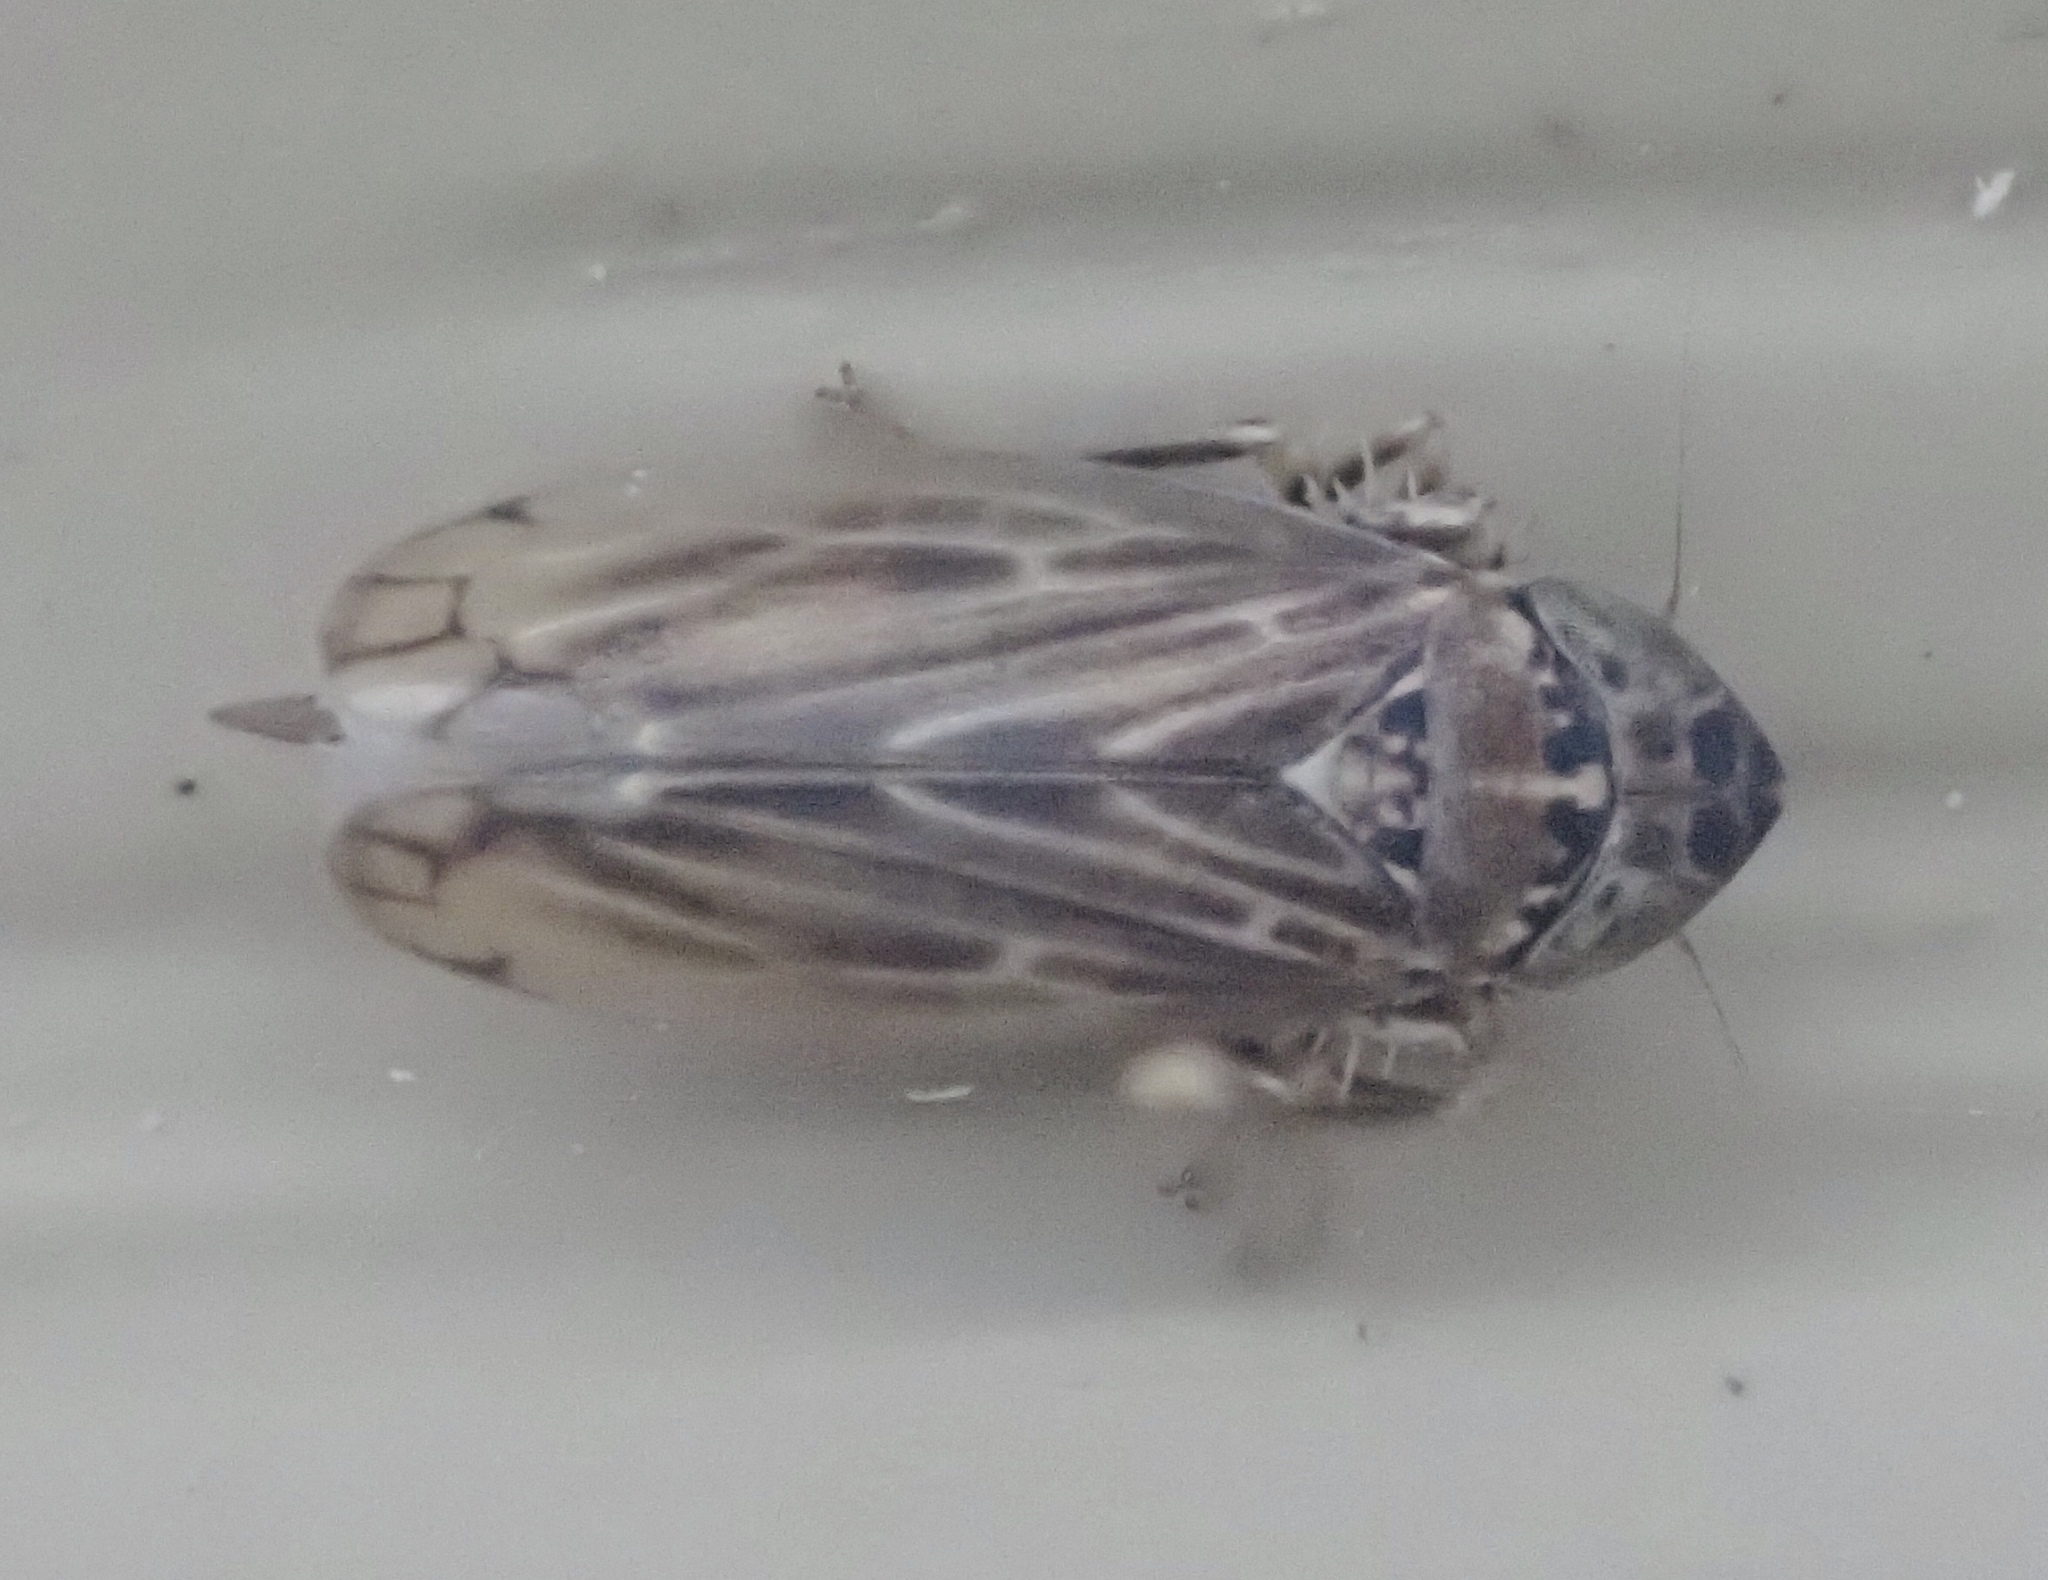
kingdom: Animalia
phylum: Arthropoda
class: Insecta
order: Hemiptera
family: Cicadellidae
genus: Stirellus
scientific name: Stirellus bicolor
